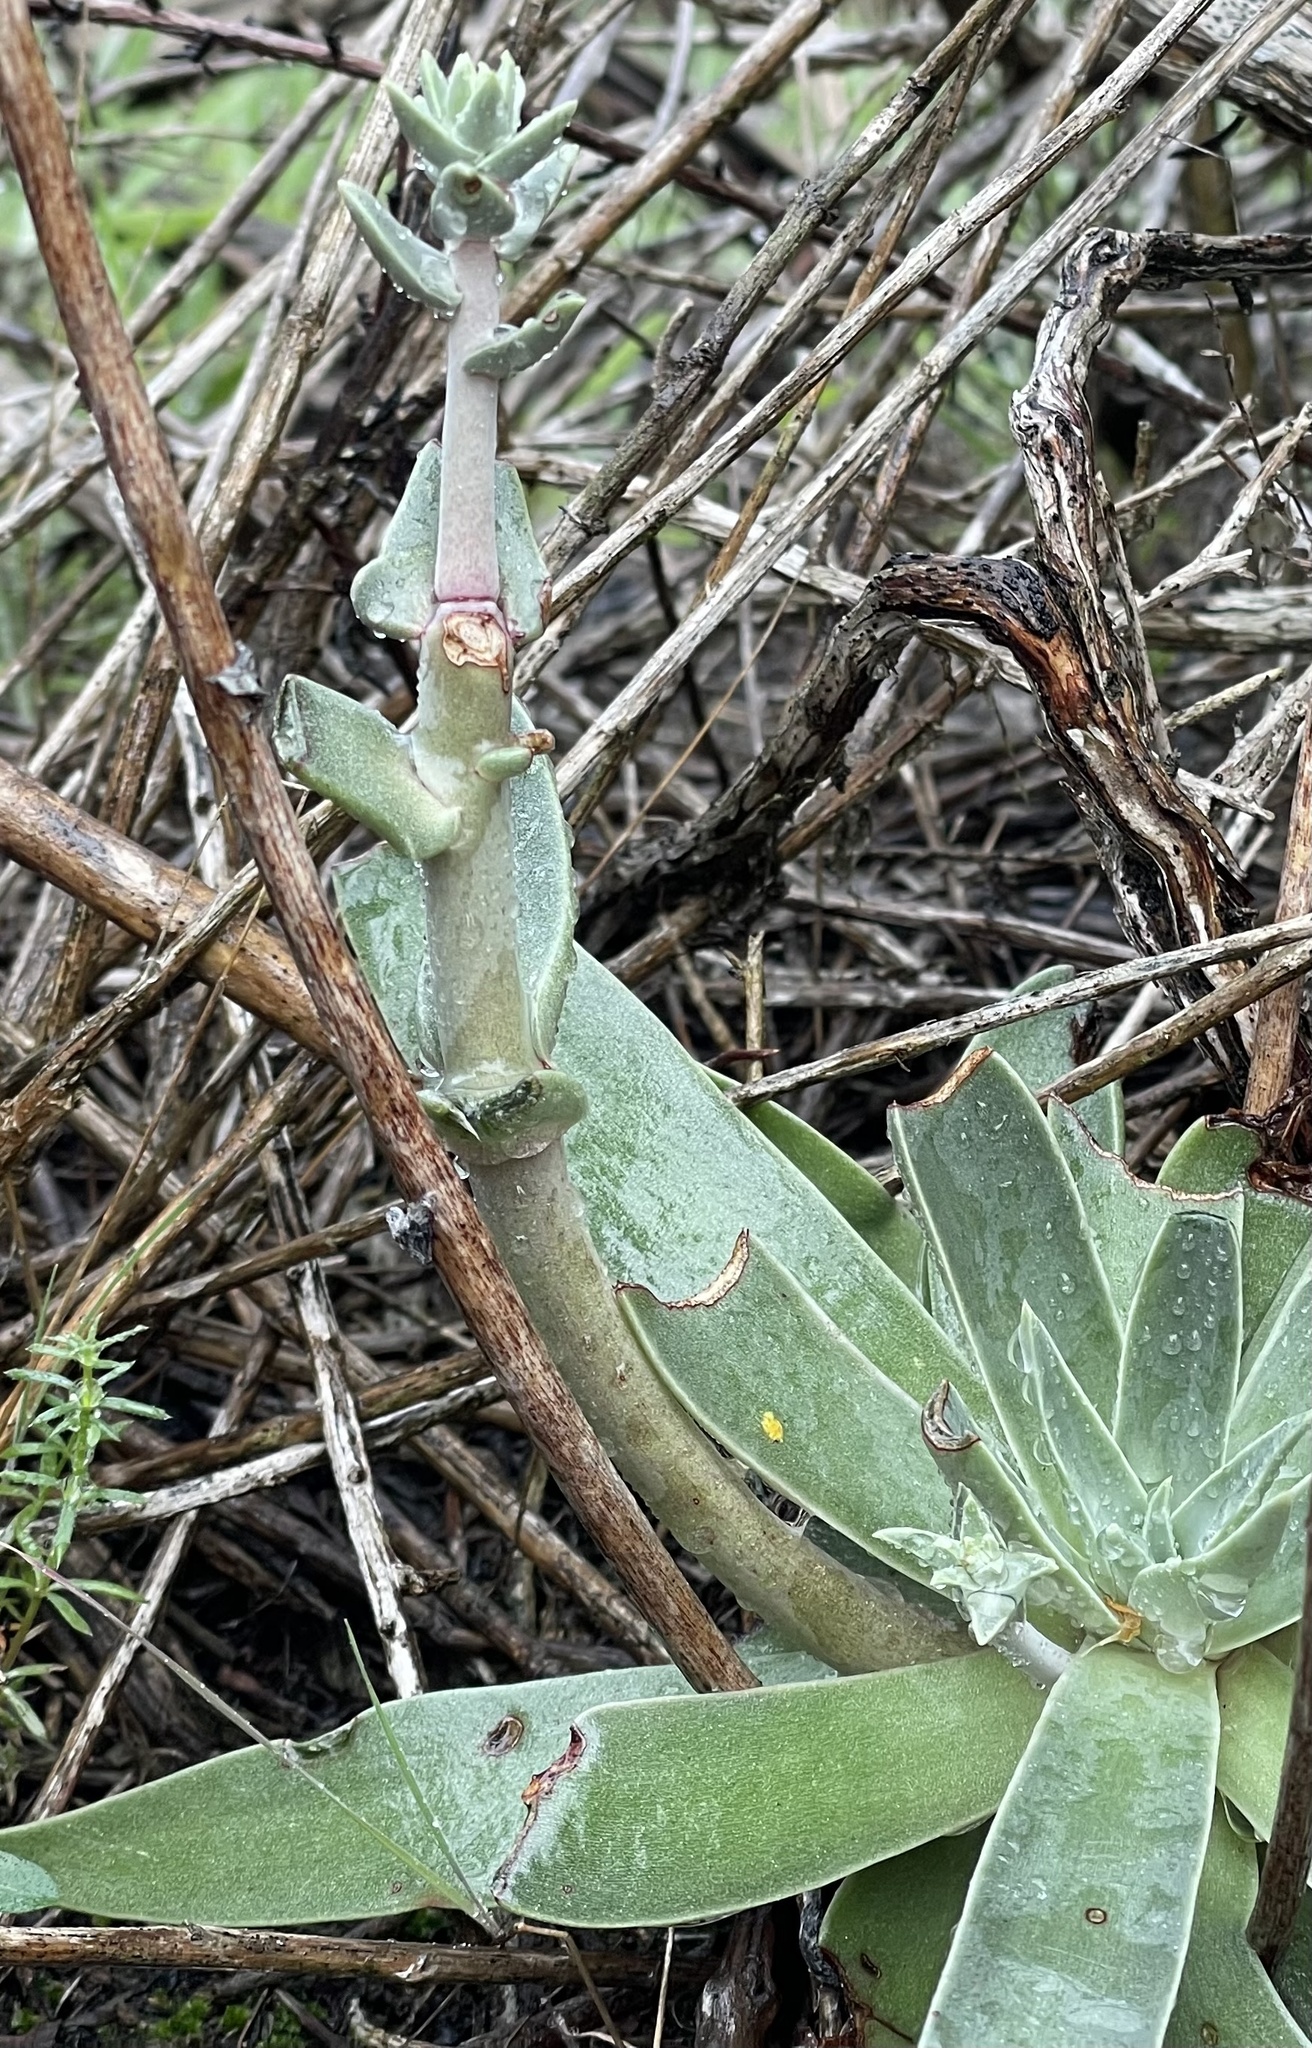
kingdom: Plantae
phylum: Tracheophyta
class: Magnoliopsida
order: Saxifragales
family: Crassulaceae
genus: Dudleya
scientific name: Dudleya lanceolata
